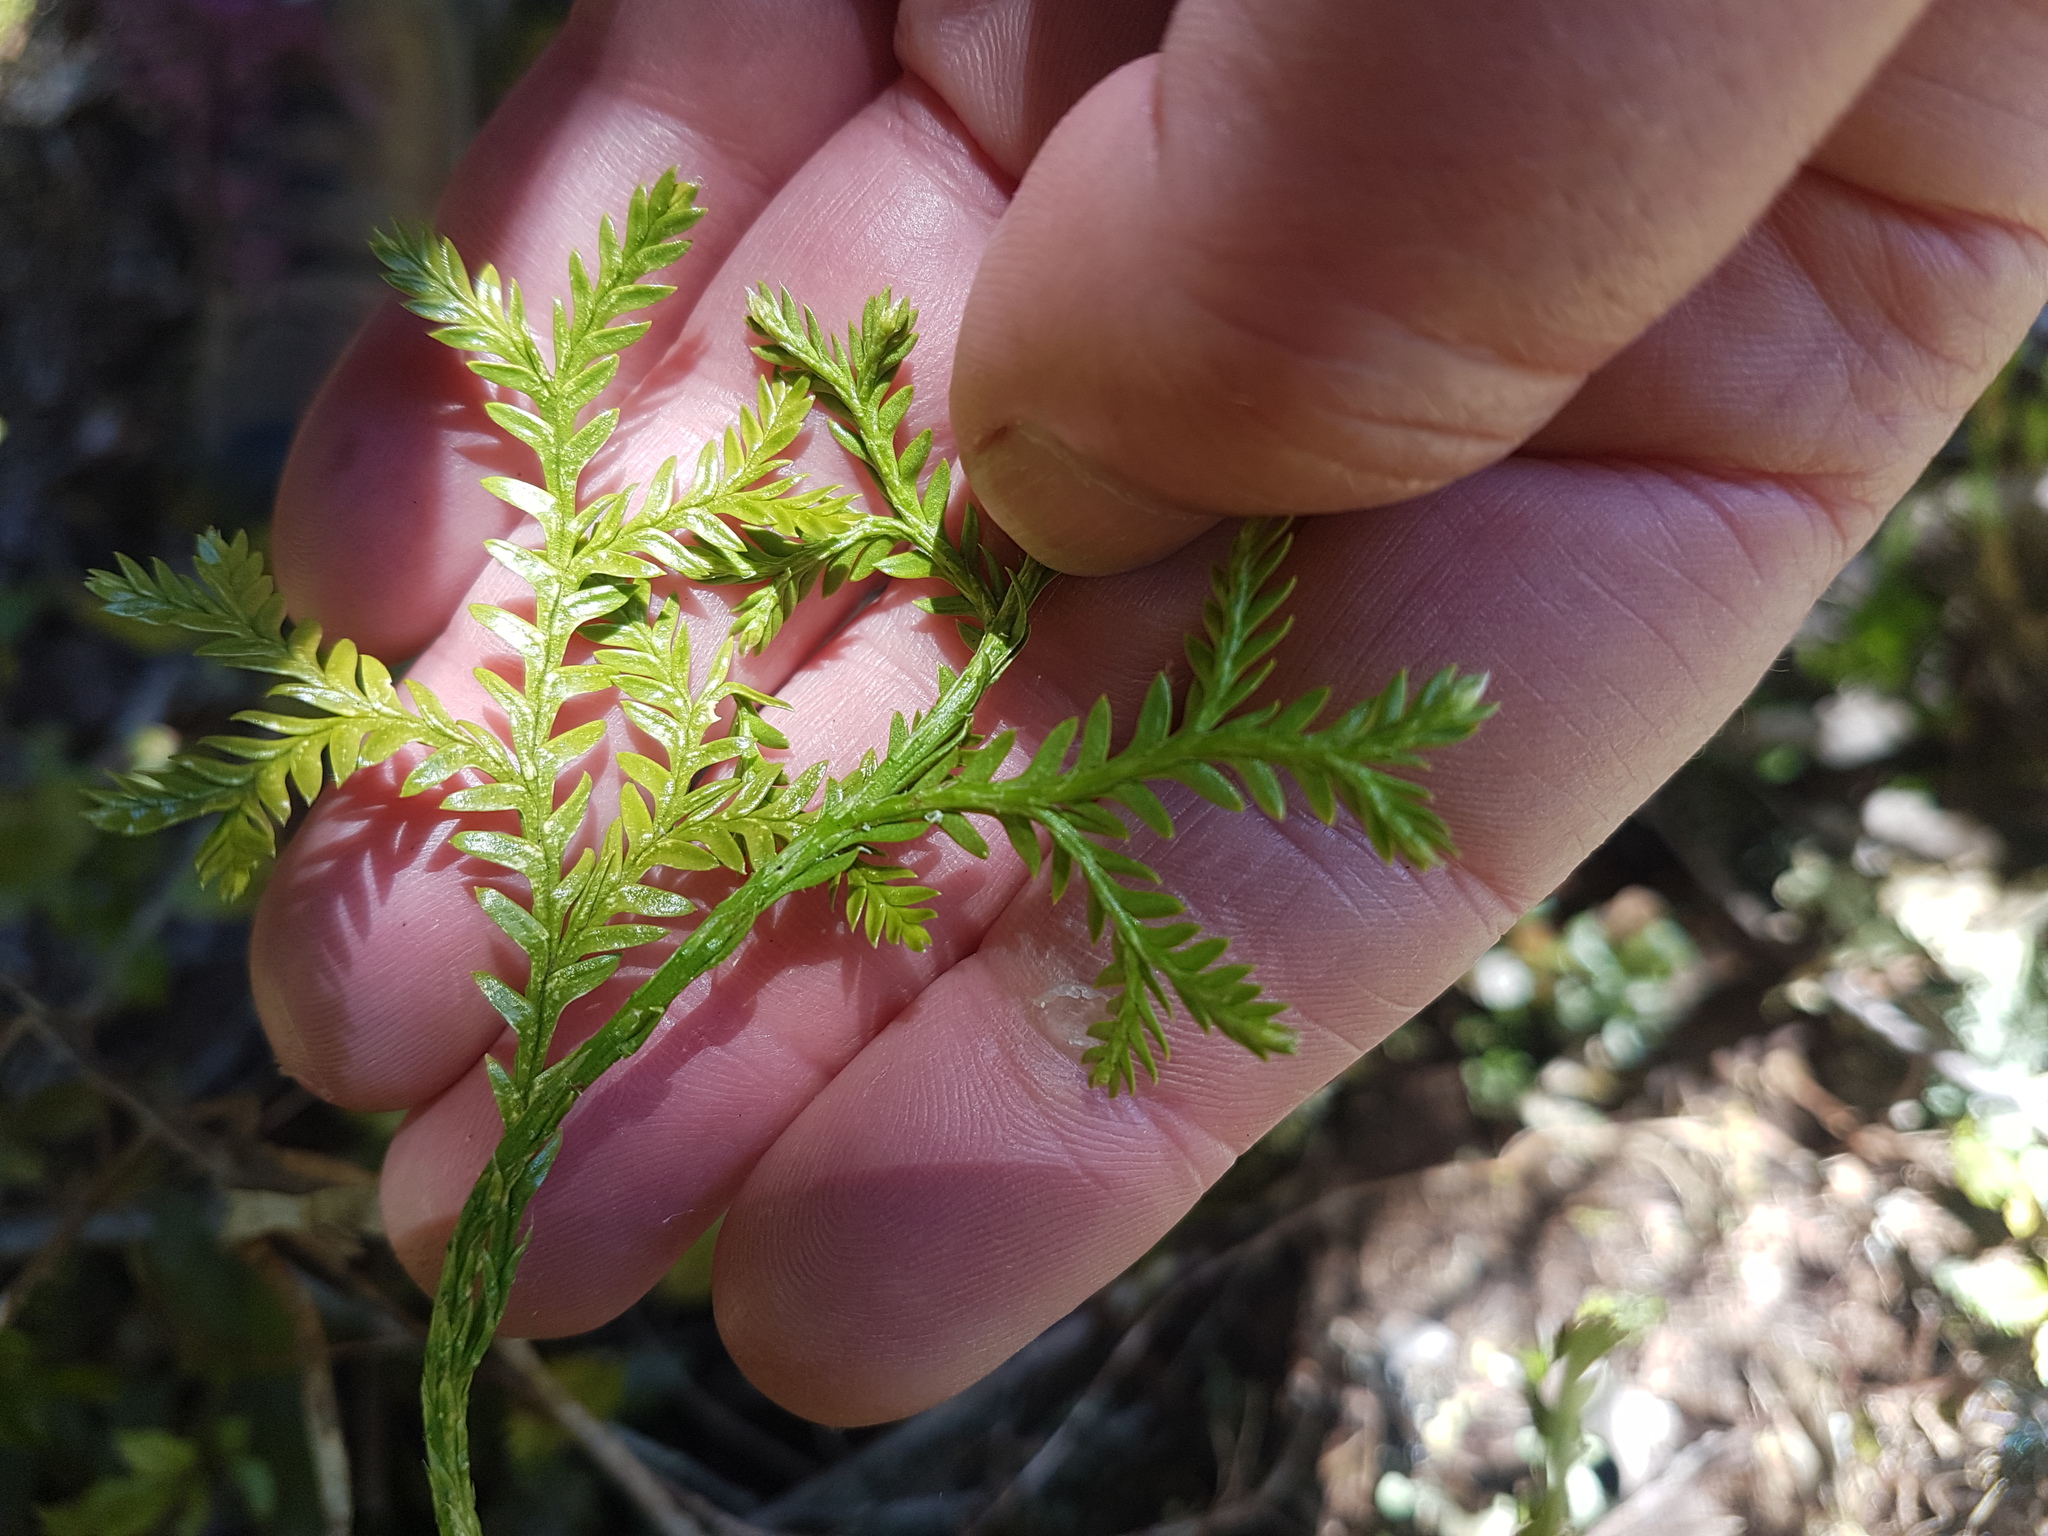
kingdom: Plantae
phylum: Tracheophyta
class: Lycopodiopsida
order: Lycopodiales
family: Lycopodiaceae
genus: Diphasium
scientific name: Diphasium scariosum
